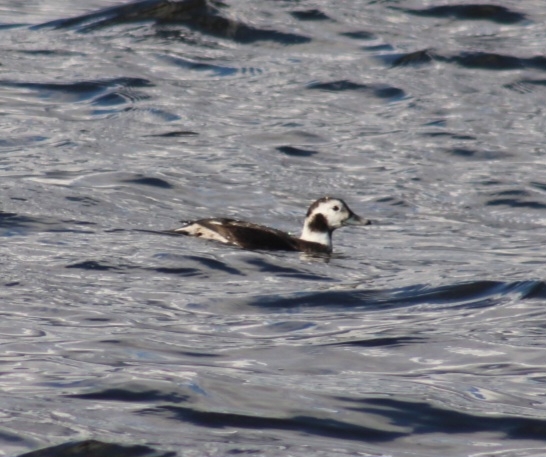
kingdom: Animalia
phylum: Chordata
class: Aves
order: Anseriformes
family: Anatidae
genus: Clangula
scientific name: Clangula hyemalis
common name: Long-tailed duck
